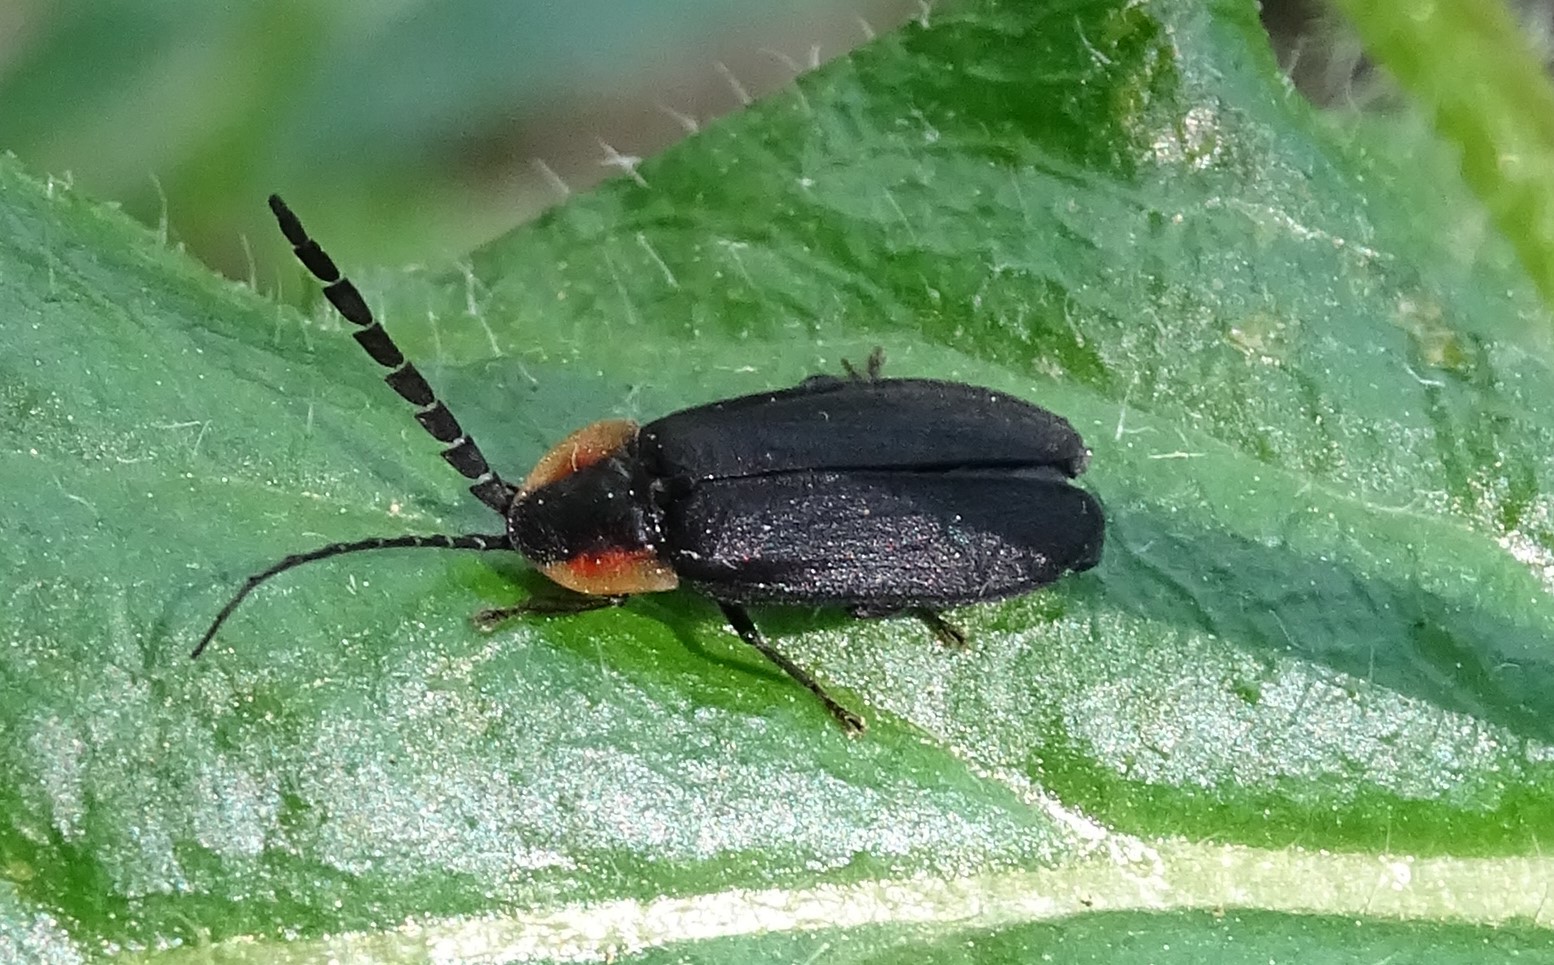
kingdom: Animalia
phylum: Arthropoda
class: Insecta
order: Coleoptera
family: Lampyridae
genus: Lucidota
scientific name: Lucidota atra
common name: Black firefly
